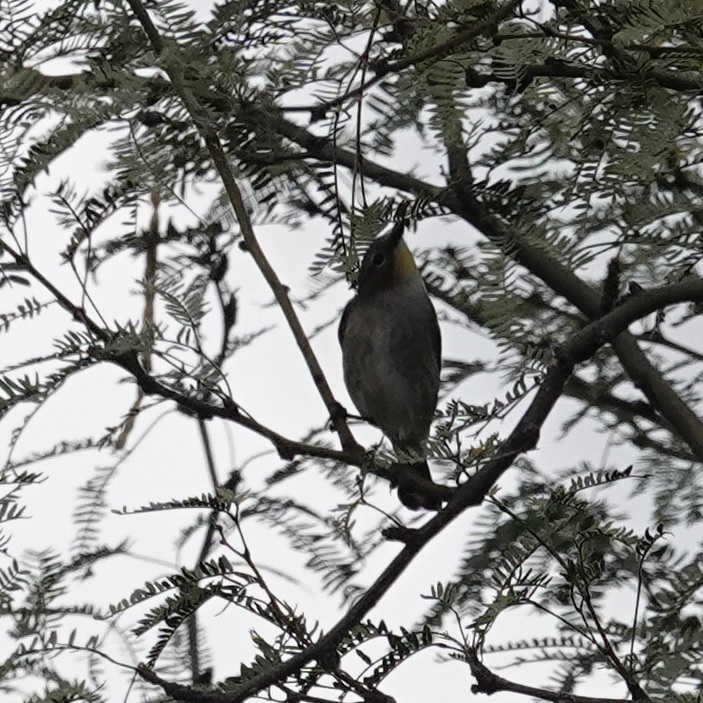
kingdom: Animalia
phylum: Chordata
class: Aves
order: Passeriformes
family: Parulidae
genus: Setophaga
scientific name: Setophaga auduboni
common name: Audubon's warbler
